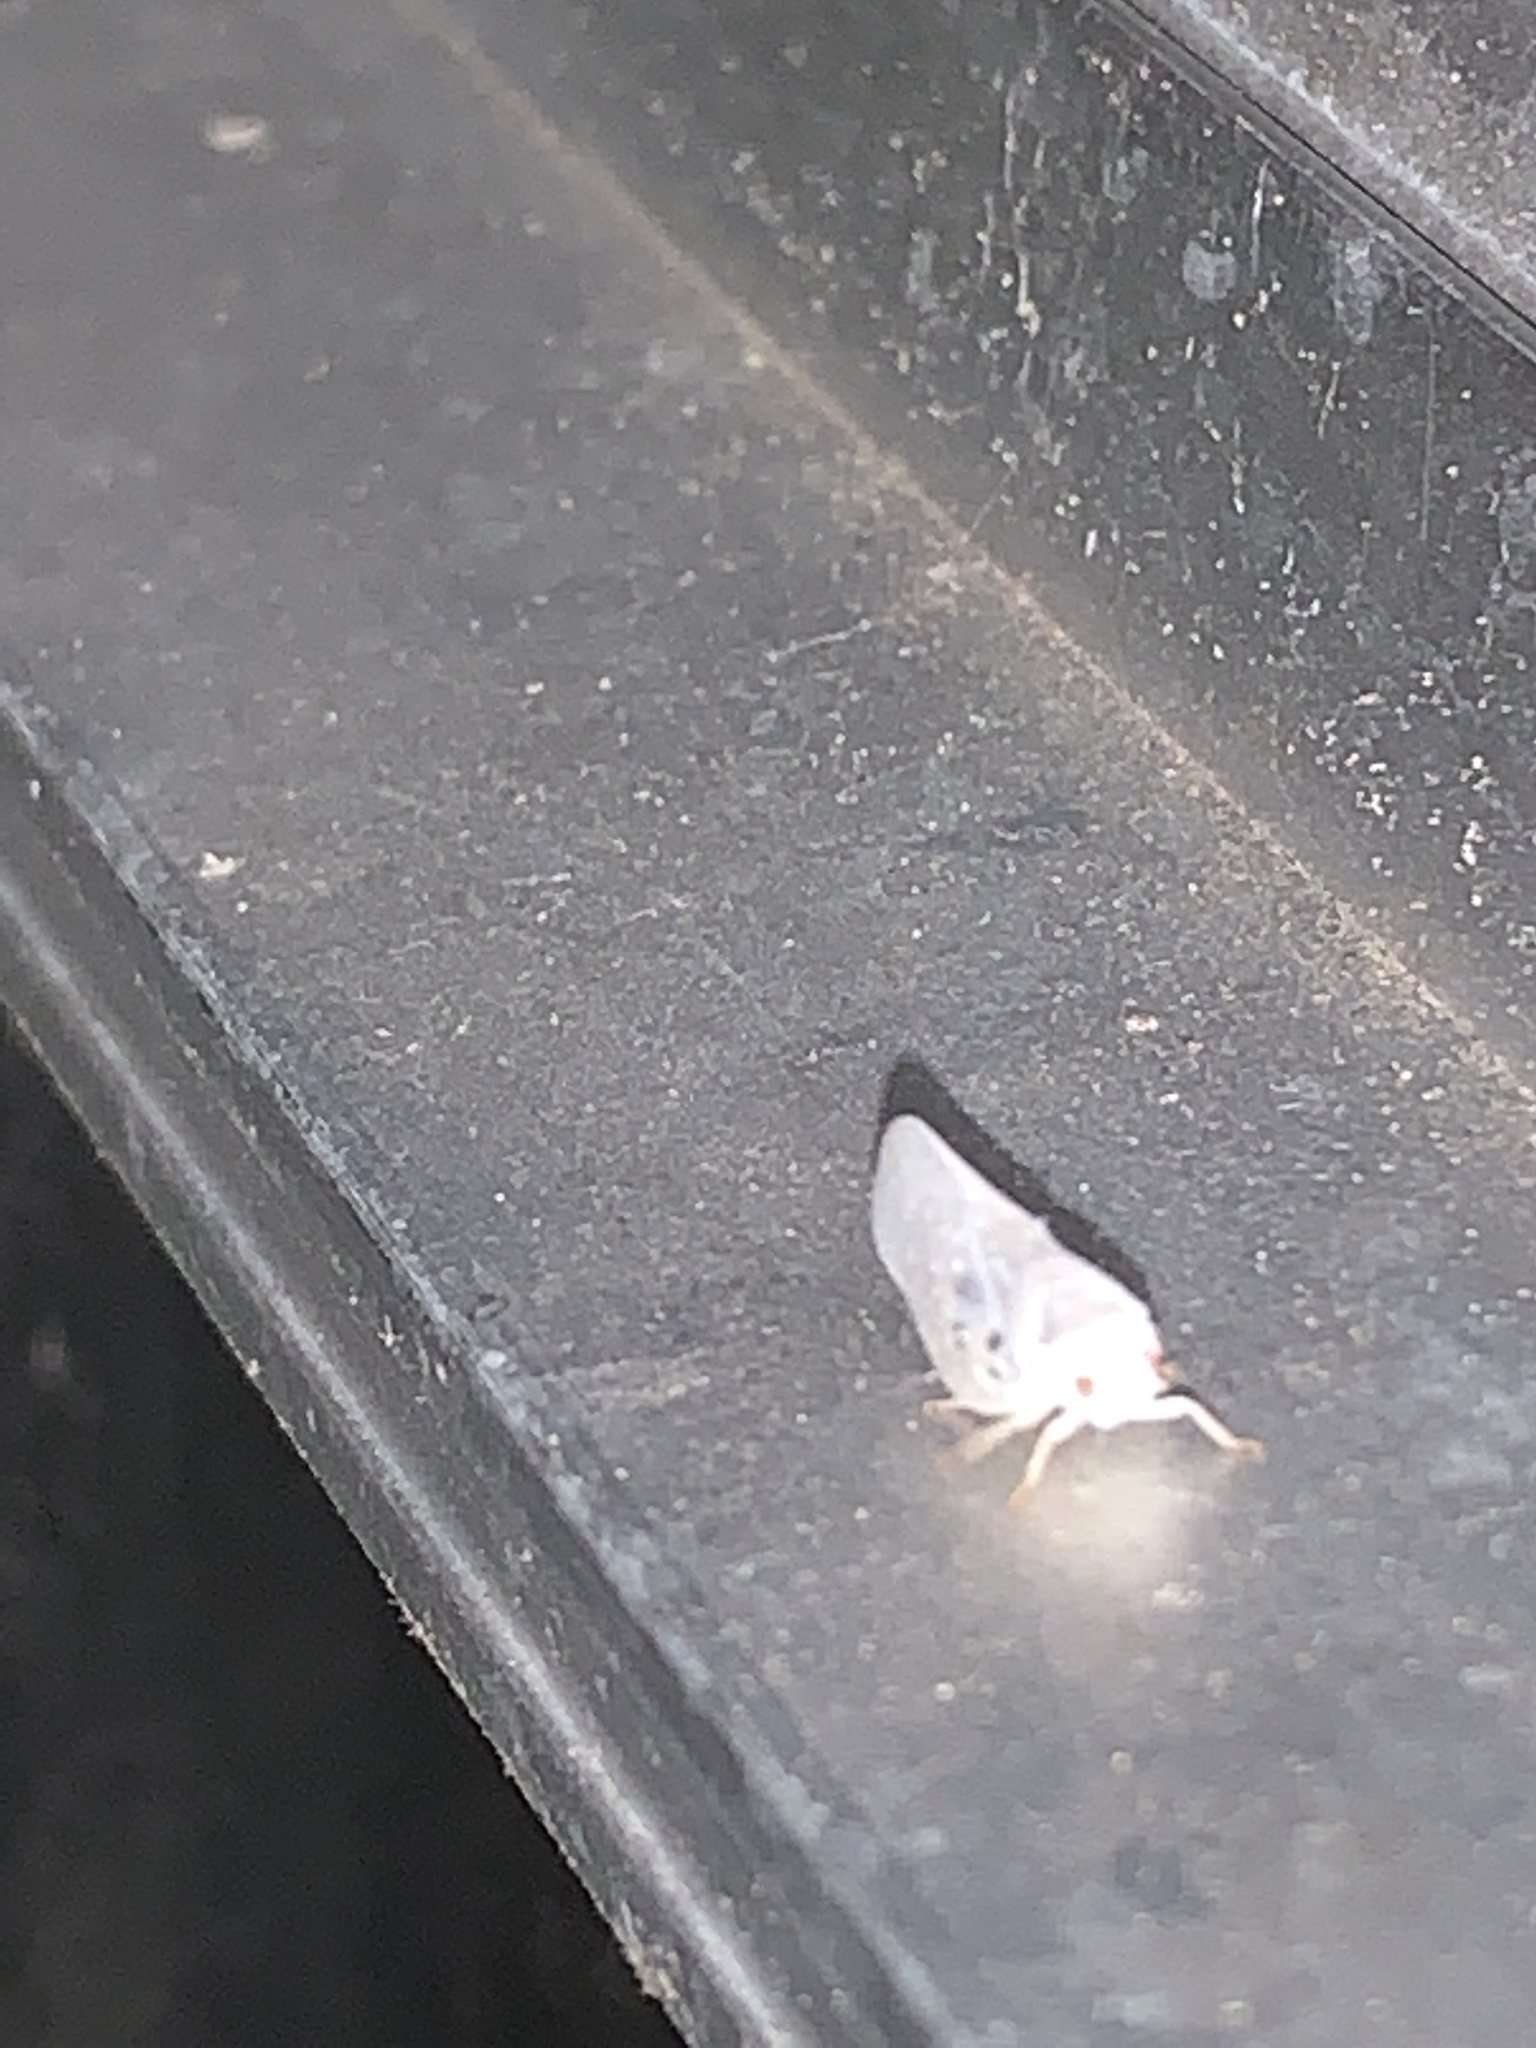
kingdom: Animalia
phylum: Arthropoda
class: Insecta
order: Hemiptera
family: Flatidae
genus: Metcalfa
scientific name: Metcalfa pruinosa
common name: Citrus flatid planthopper
